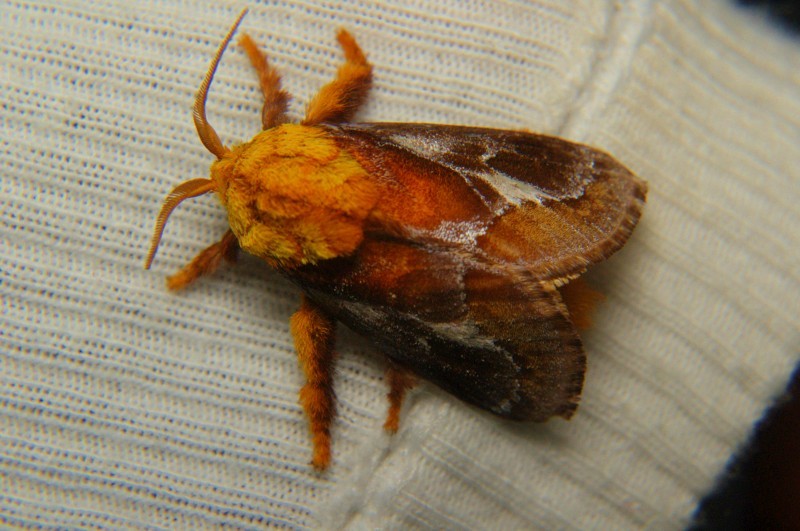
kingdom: Animalia
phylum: Arthropoda
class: Insecta
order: Lepidoptera
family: Limacodidae
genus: Miresa
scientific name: Miresa fulgida
